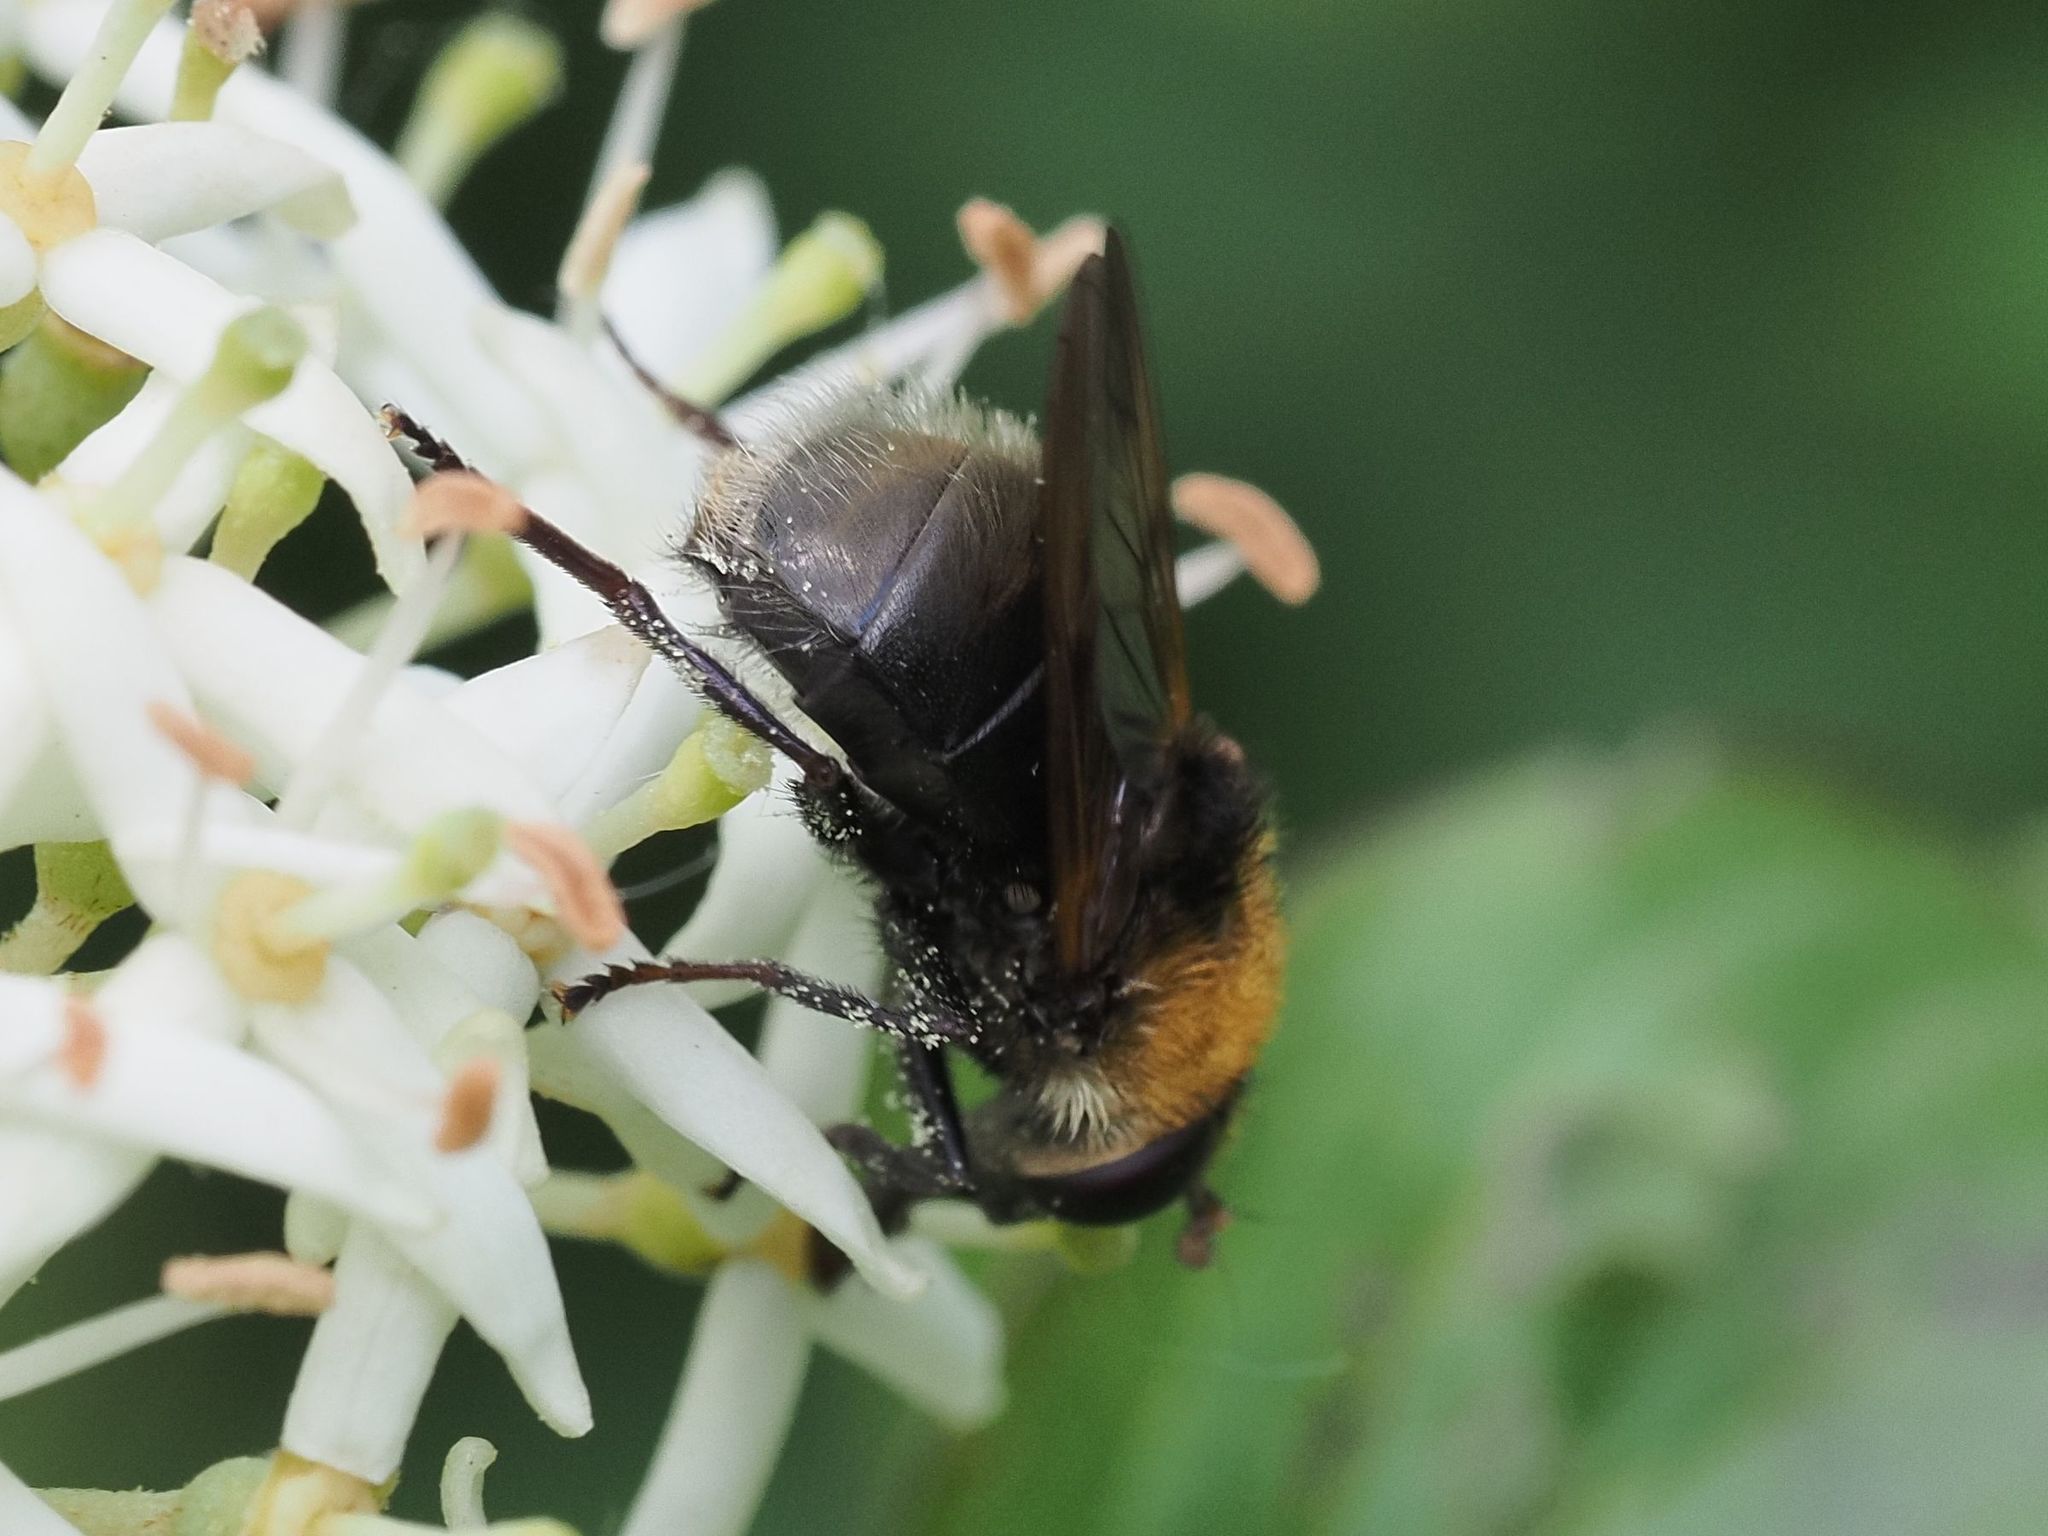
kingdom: Animalia
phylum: Arthropoda
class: Insecta
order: Diptera
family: Syrphidae
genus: Criorhina
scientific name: Criorhina berberina
